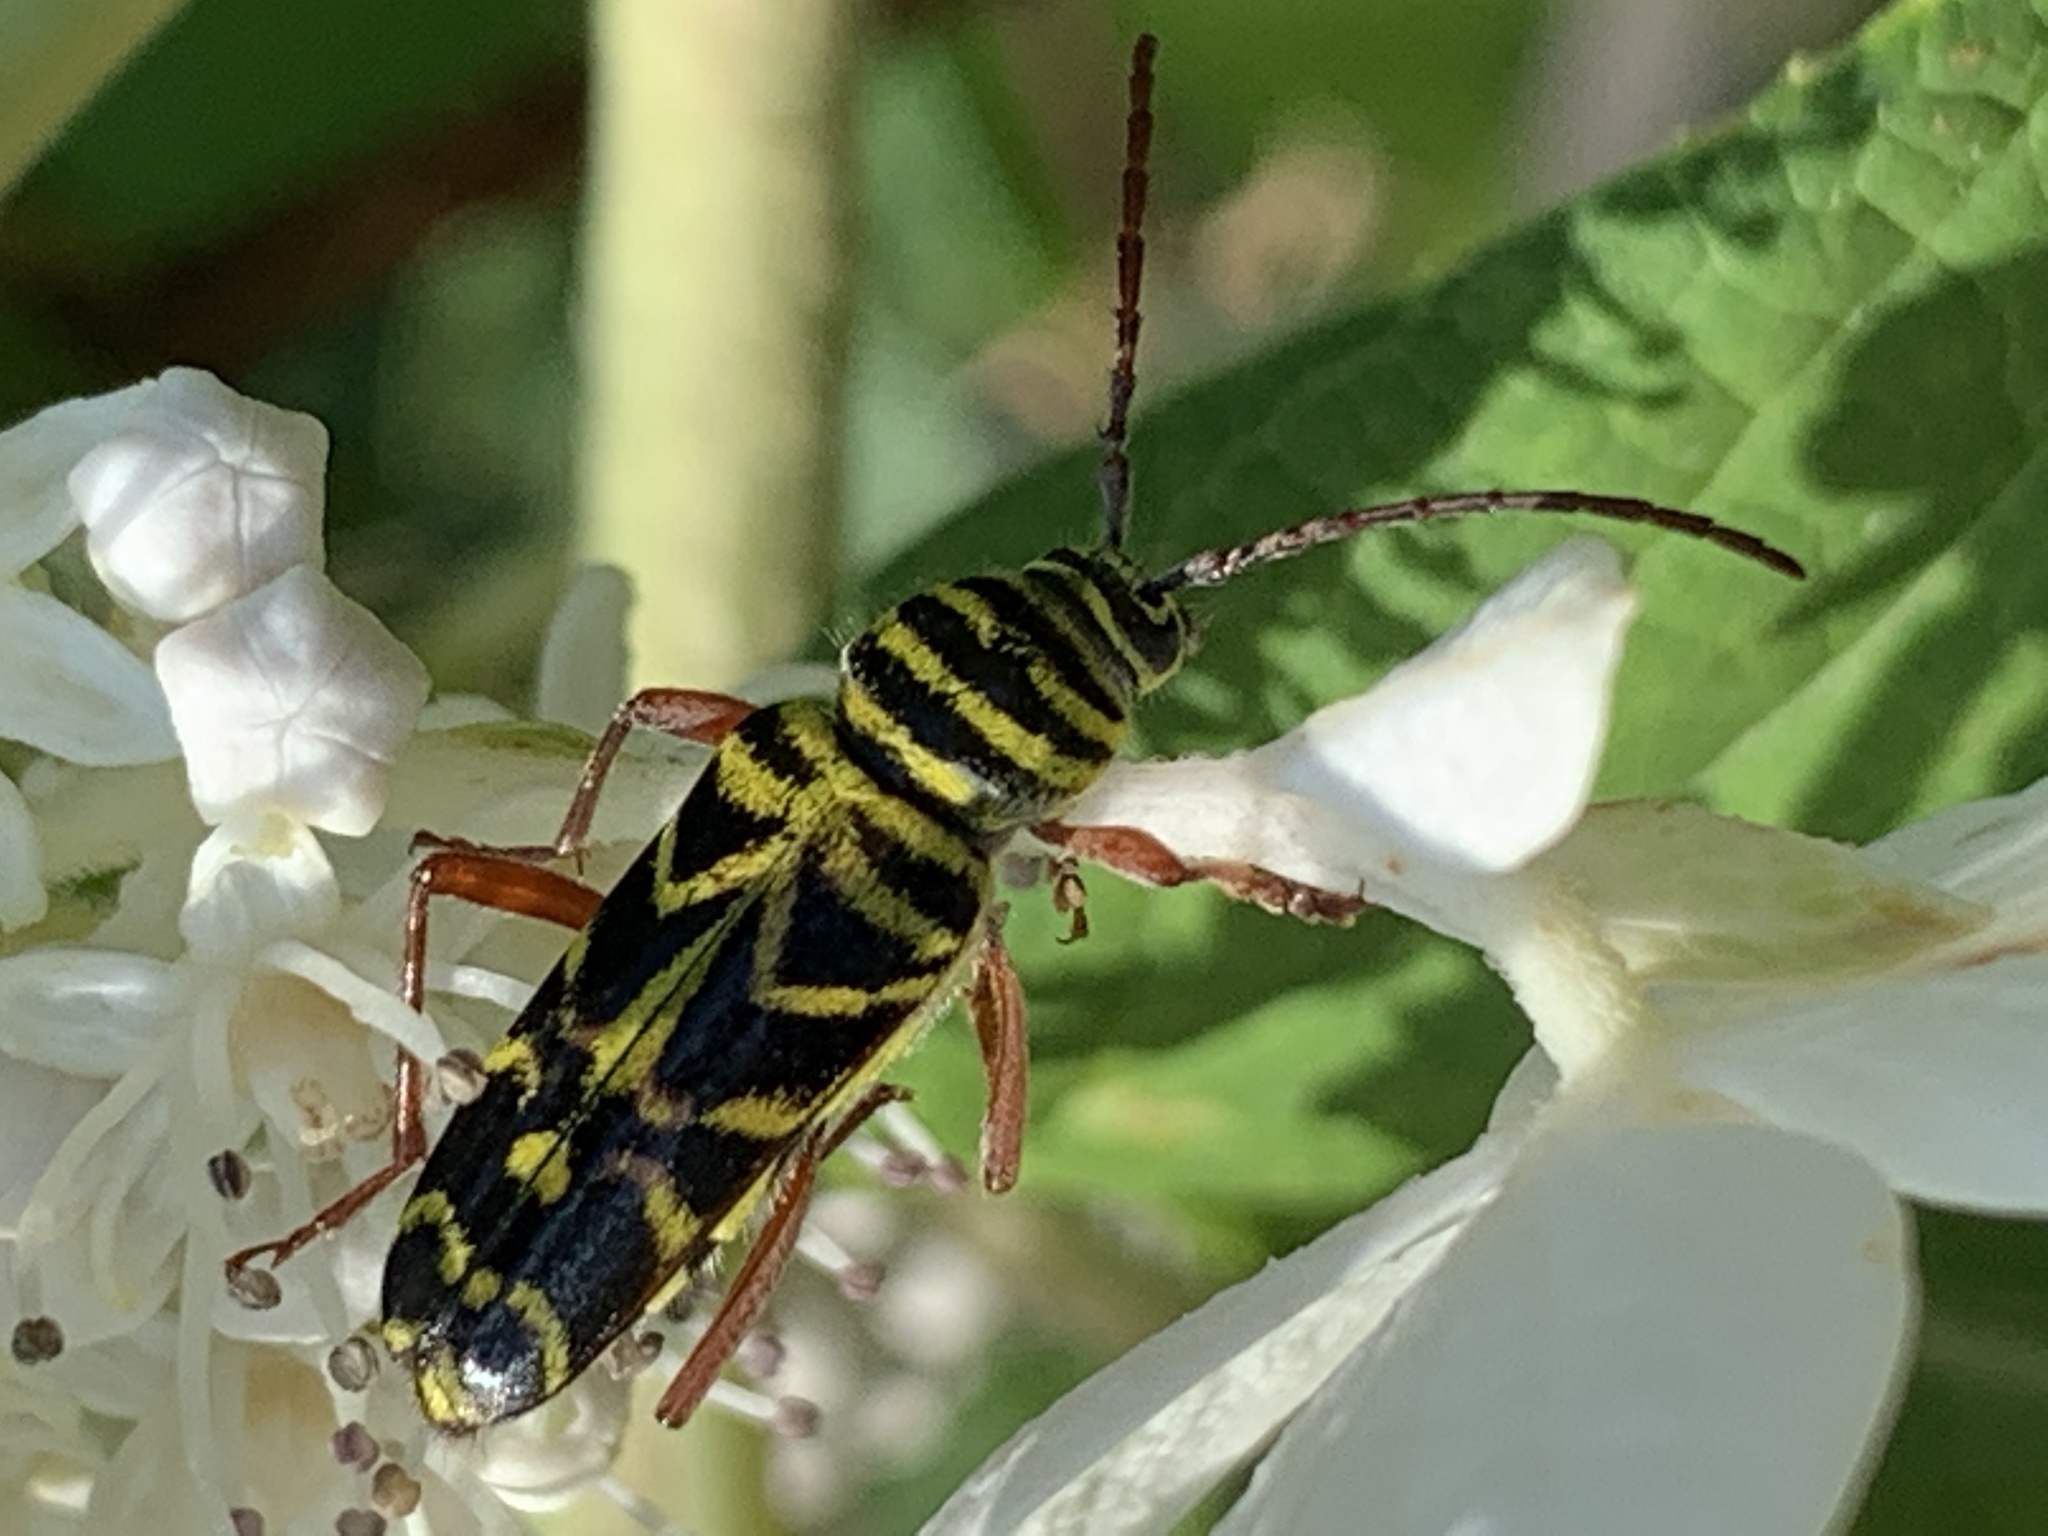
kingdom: Animalia
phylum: Arthropoda
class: Insecta
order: Coleoptera
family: Cerambycidae
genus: Megacyllene
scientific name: Megacyllene robiniae
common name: Locust borer
